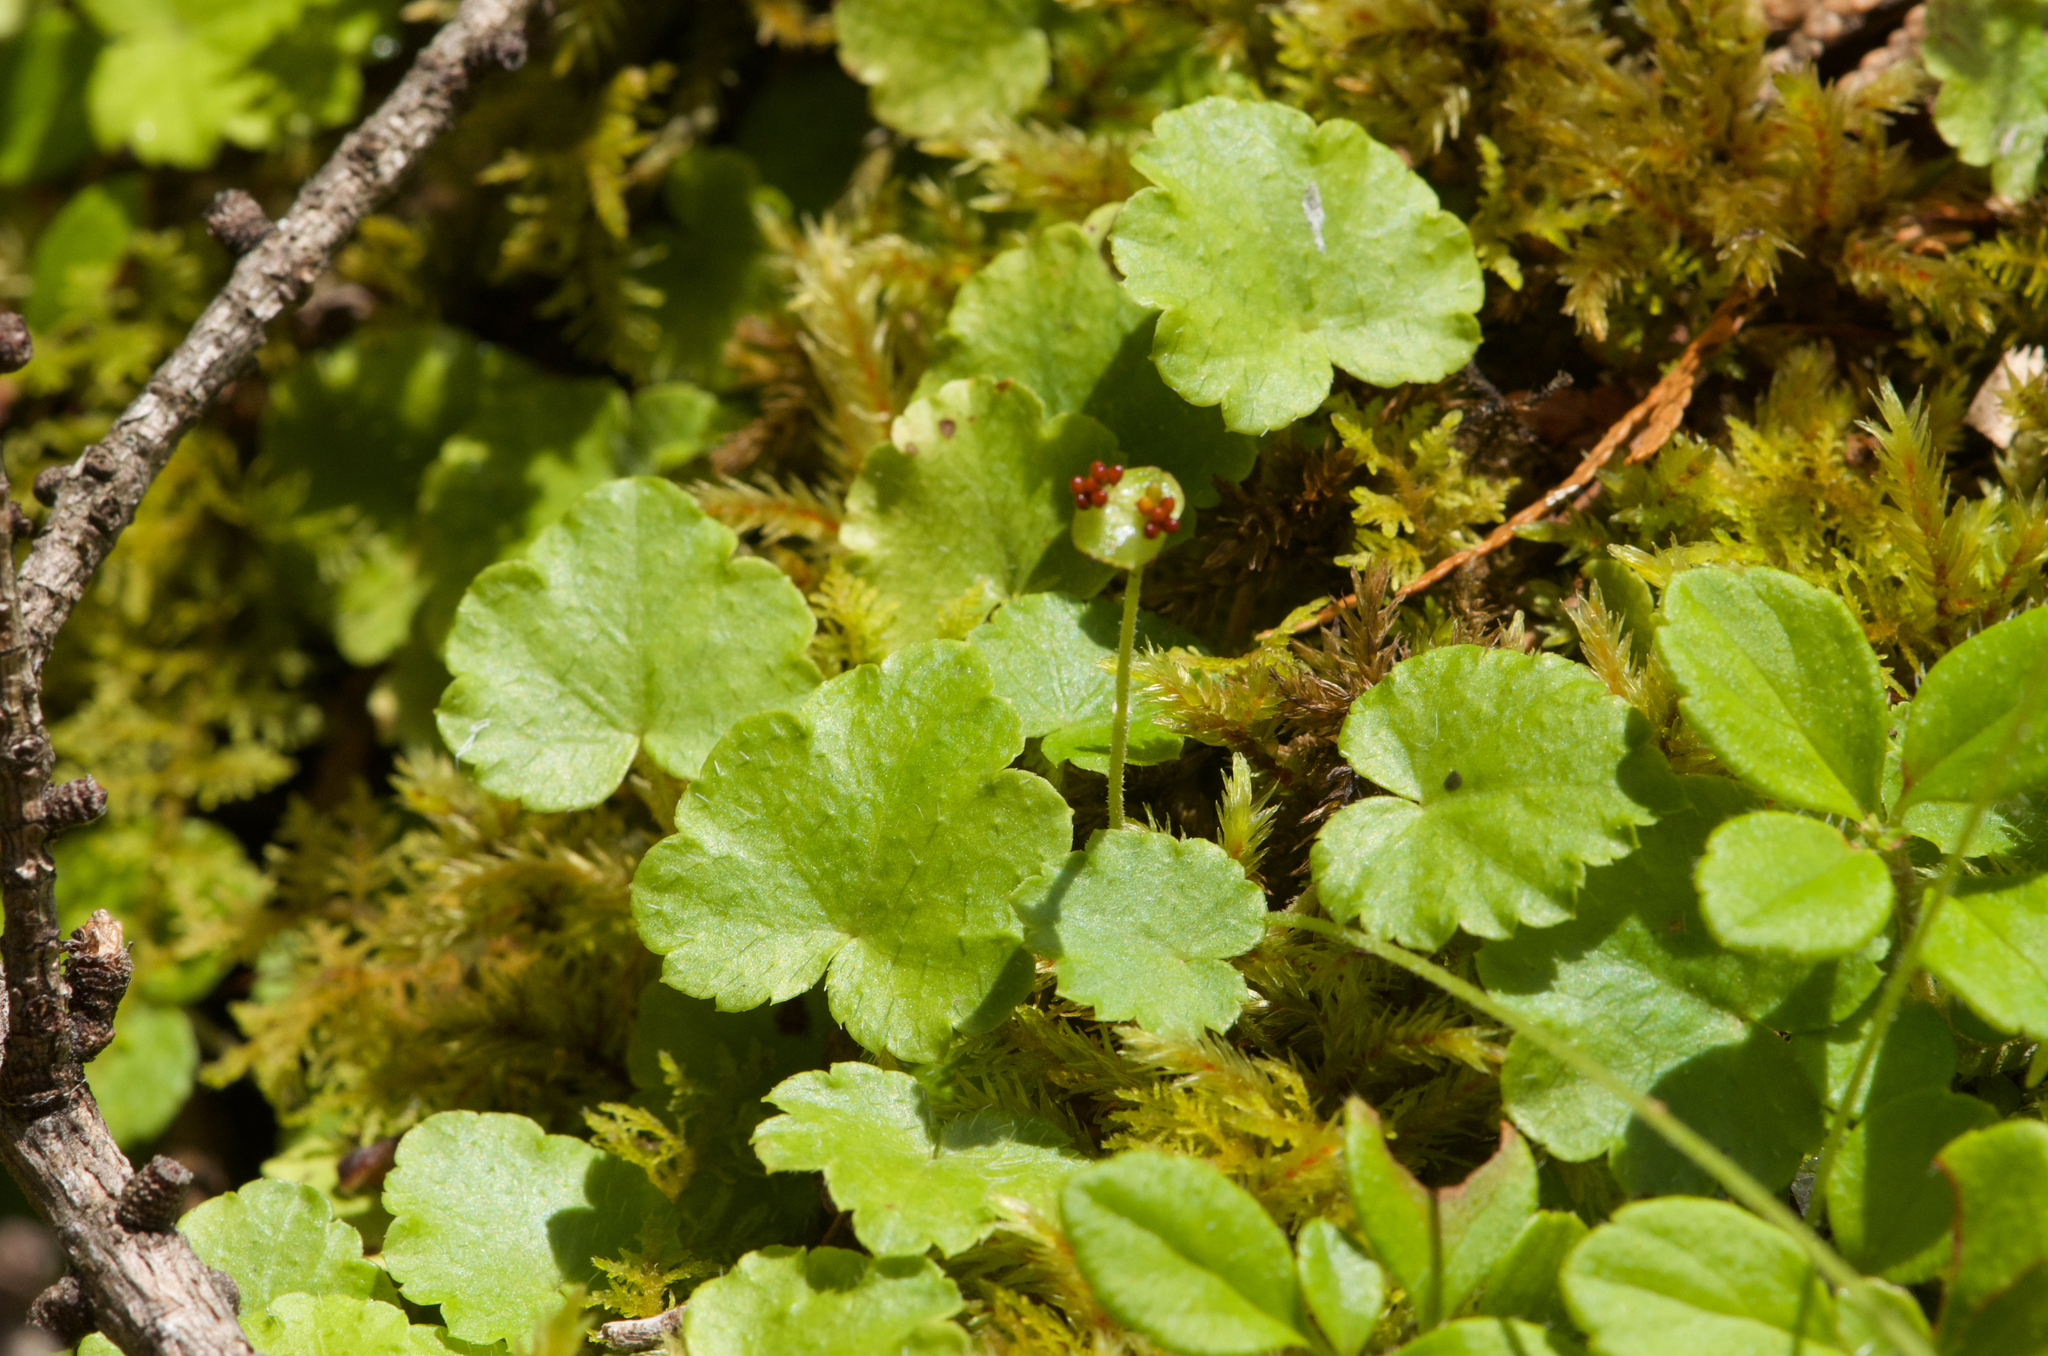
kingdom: Plantae
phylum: Tracheophyta
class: Magnoliopsida
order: Saxifragales
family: Saxifragaceae
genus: Mitella
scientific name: Mitella nuda
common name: Bare-stemmed bishop's-cap
